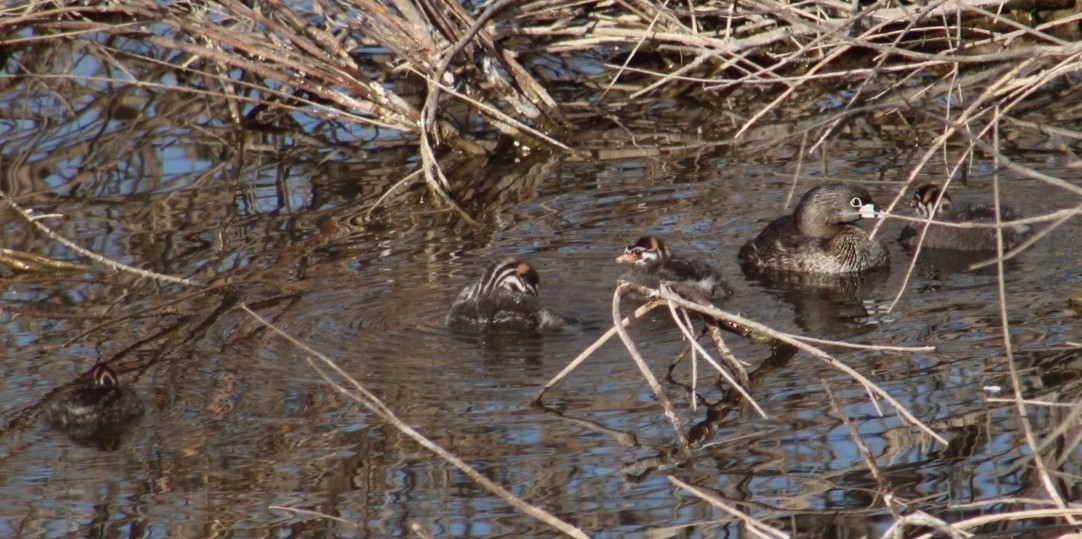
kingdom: Animalia
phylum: Chordata
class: Aves
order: Podicipediformes
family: Podicipedidae
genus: Podilymbus
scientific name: Podilymbus podiceps
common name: Pied-billed grebe
